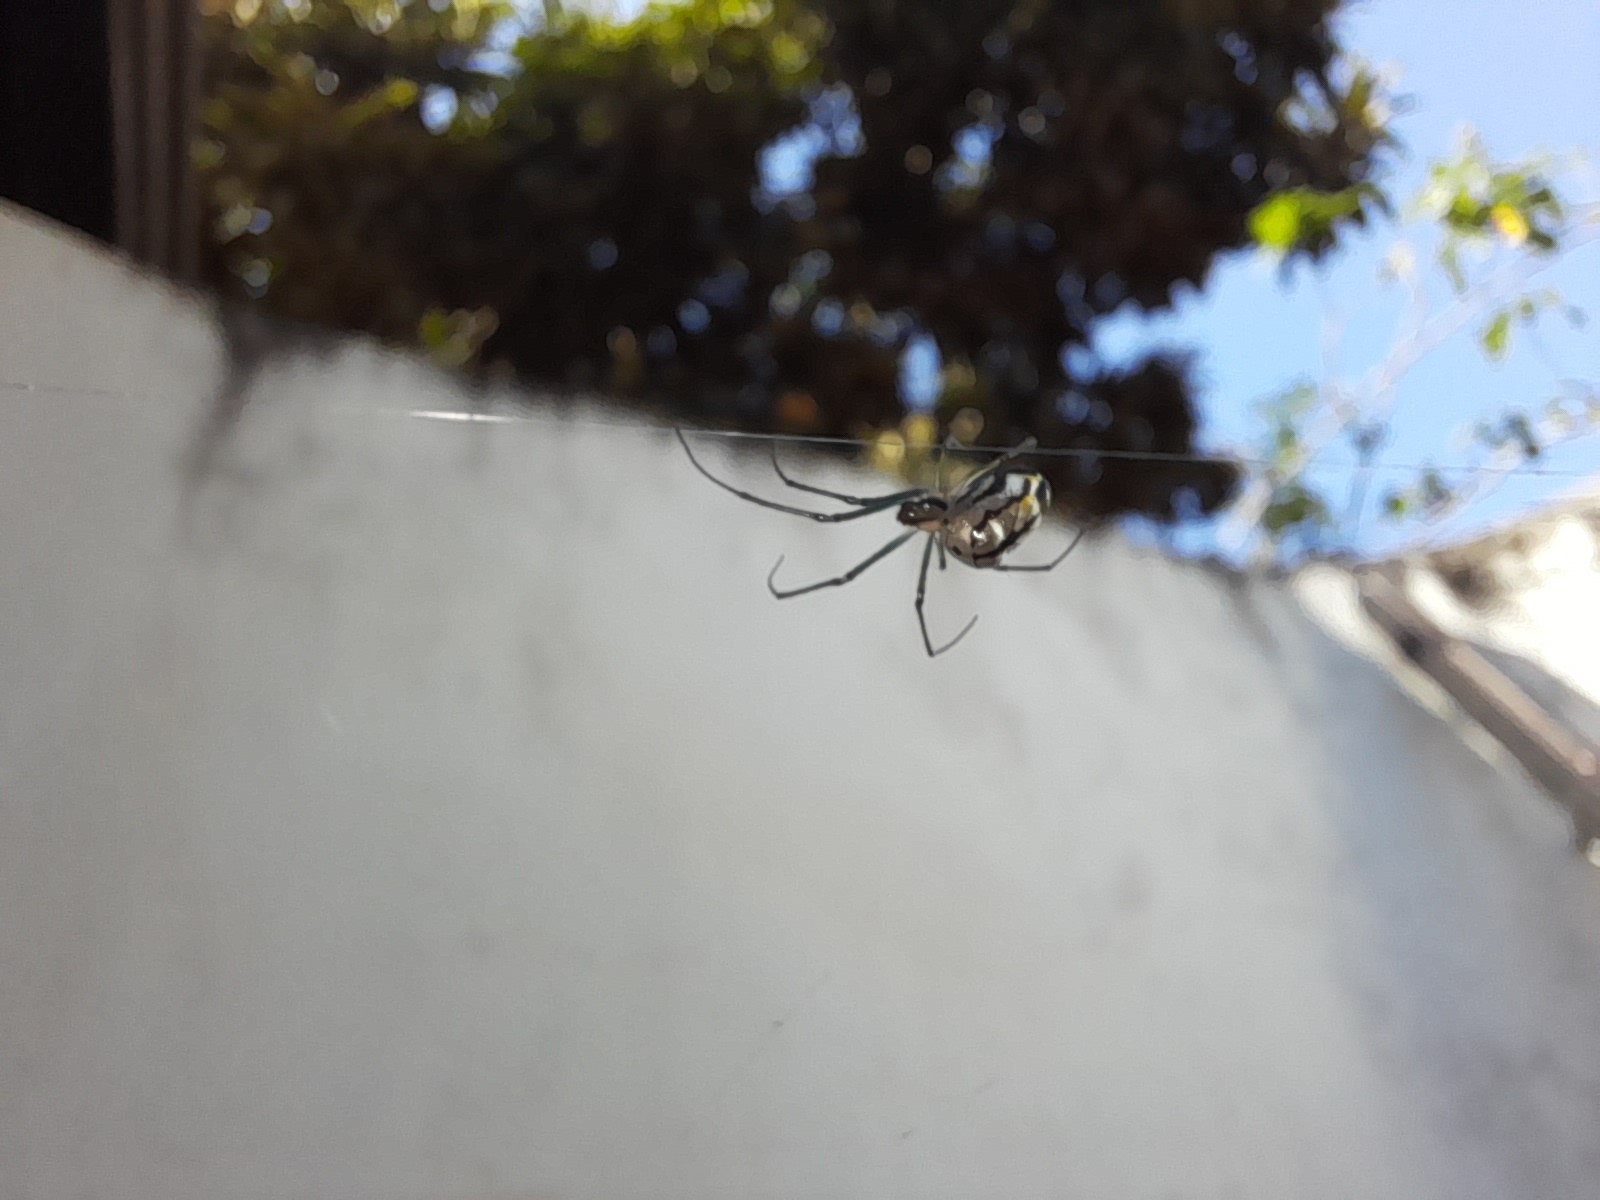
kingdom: Animalia
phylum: Arthropoda
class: Arachnida
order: Araneae
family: Tetragnathidae
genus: Leucauge
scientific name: Leucauge volupis
